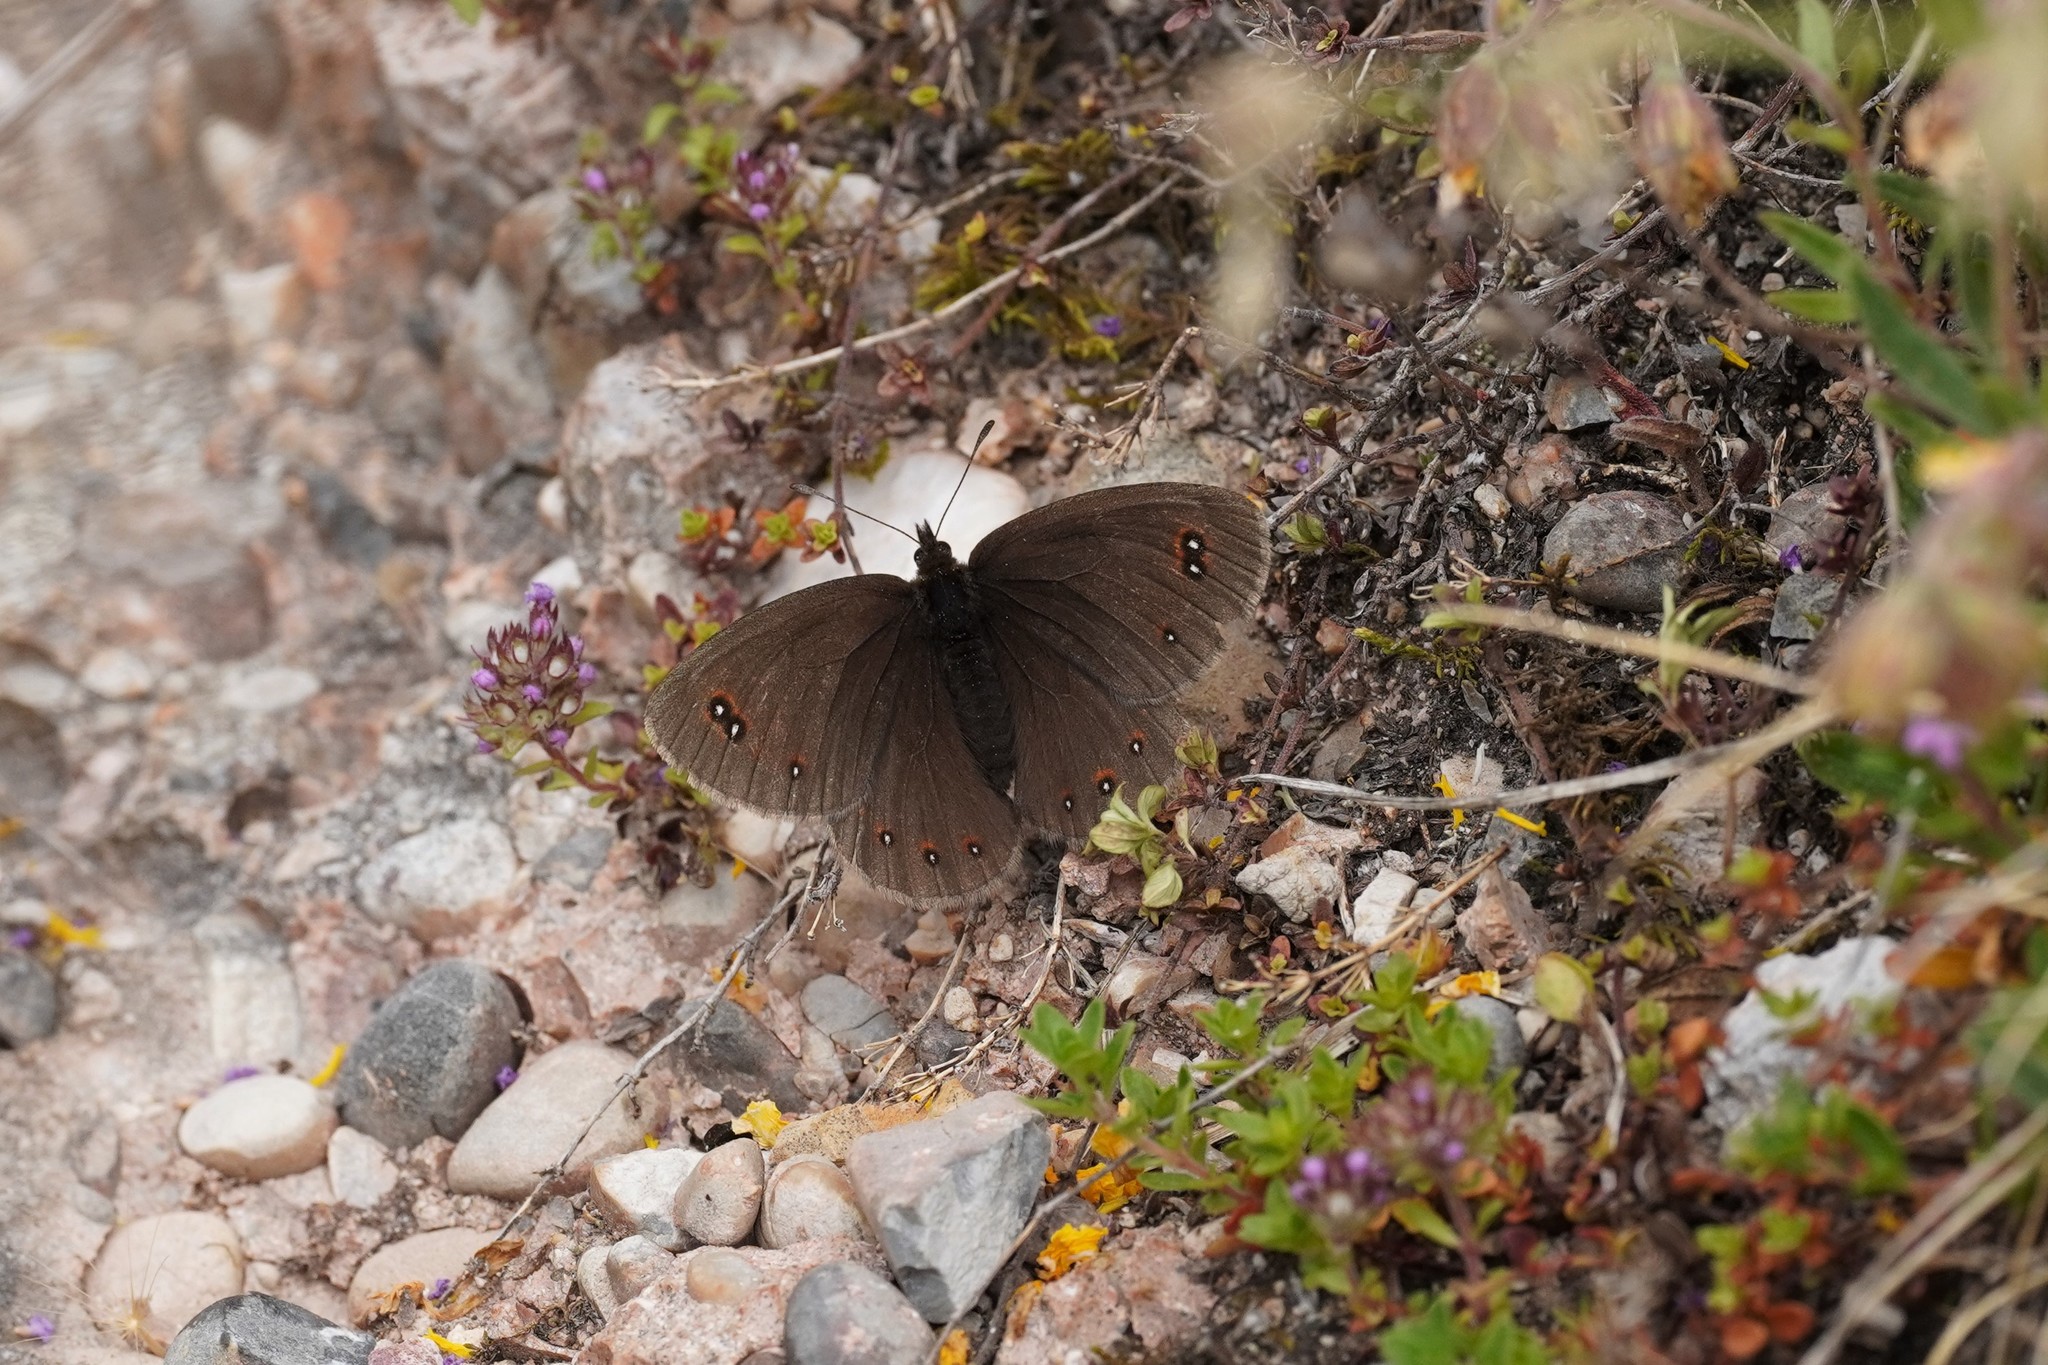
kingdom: Animalia
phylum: Arthropoda
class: Insecta
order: Lepidoptera
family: Nymphalidae
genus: Erebia
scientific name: Erebia meolans
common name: Piedmont ringlet
